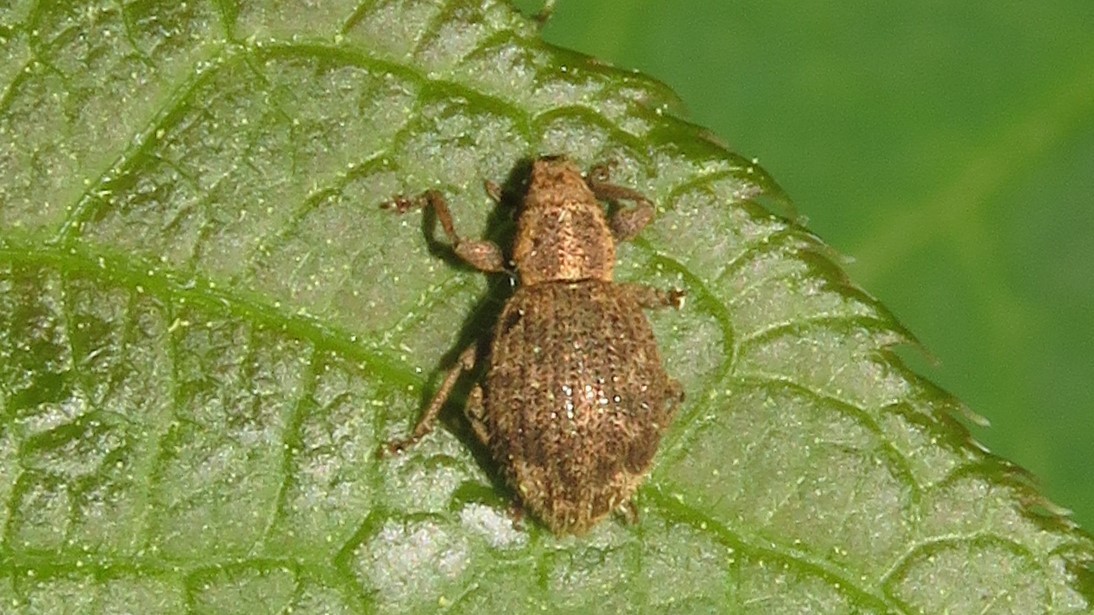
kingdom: Animalia
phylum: Arthropoda
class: Insecta
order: Coleoptera
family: Curculionidae
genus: Sciaphilus
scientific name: Sciaphilus asperatus
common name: Weevil
